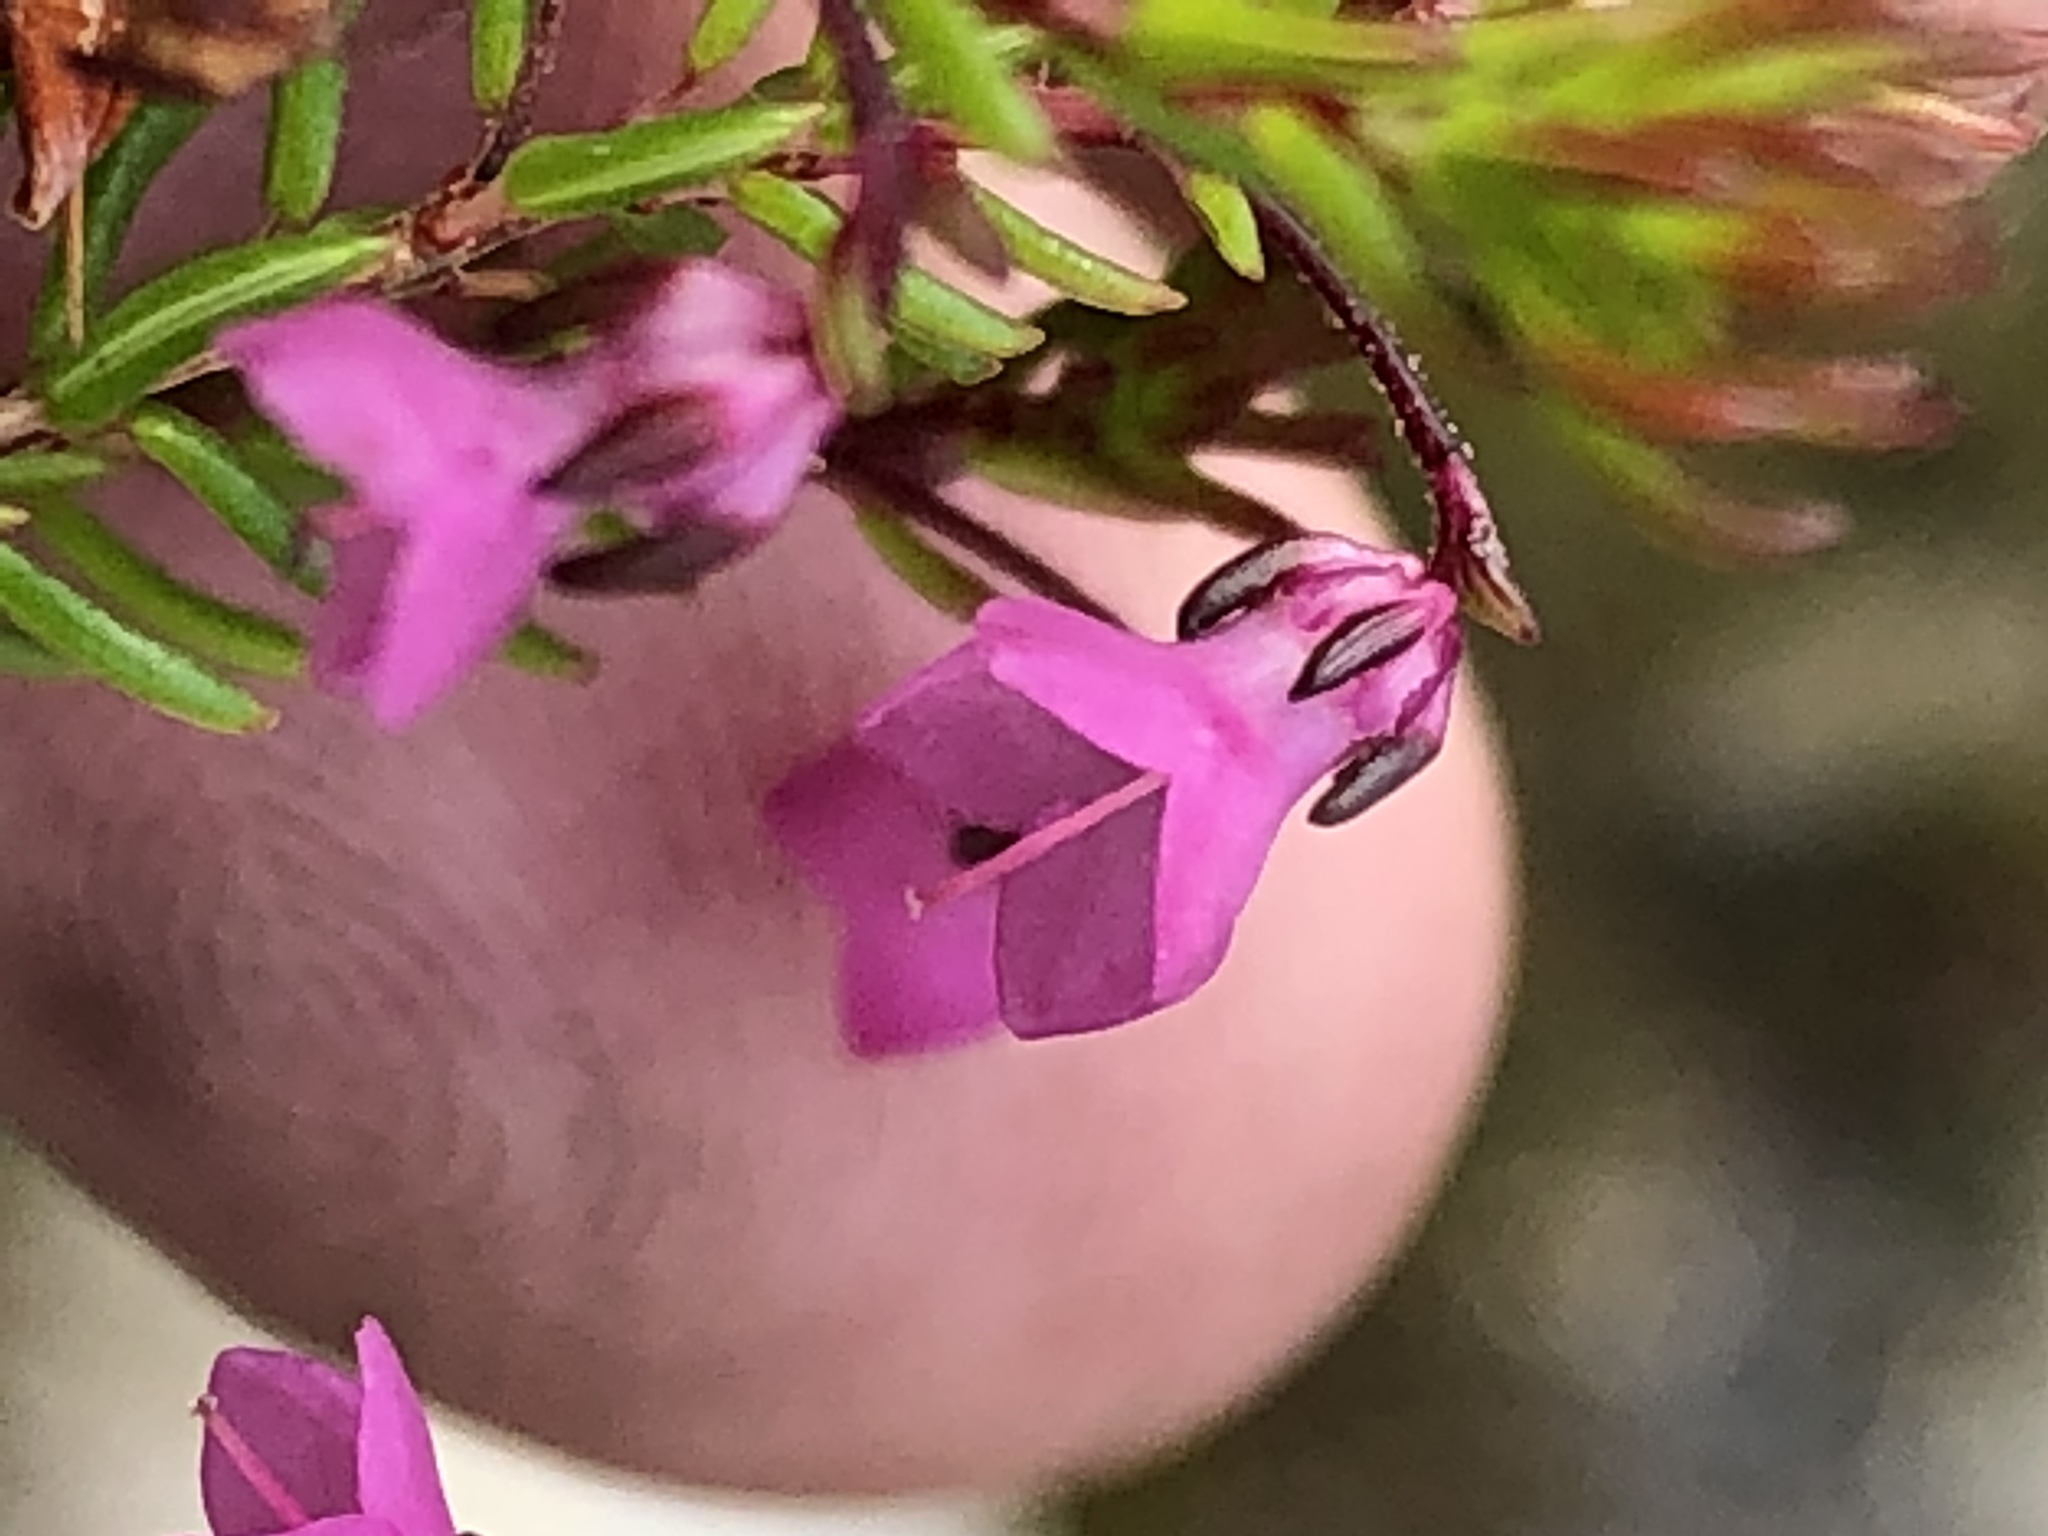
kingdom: Plantae
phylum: Tracheophyta
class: Magnoliopsida
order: Ericales
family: Ericaceae
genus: Erica
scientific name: Erica cubica
